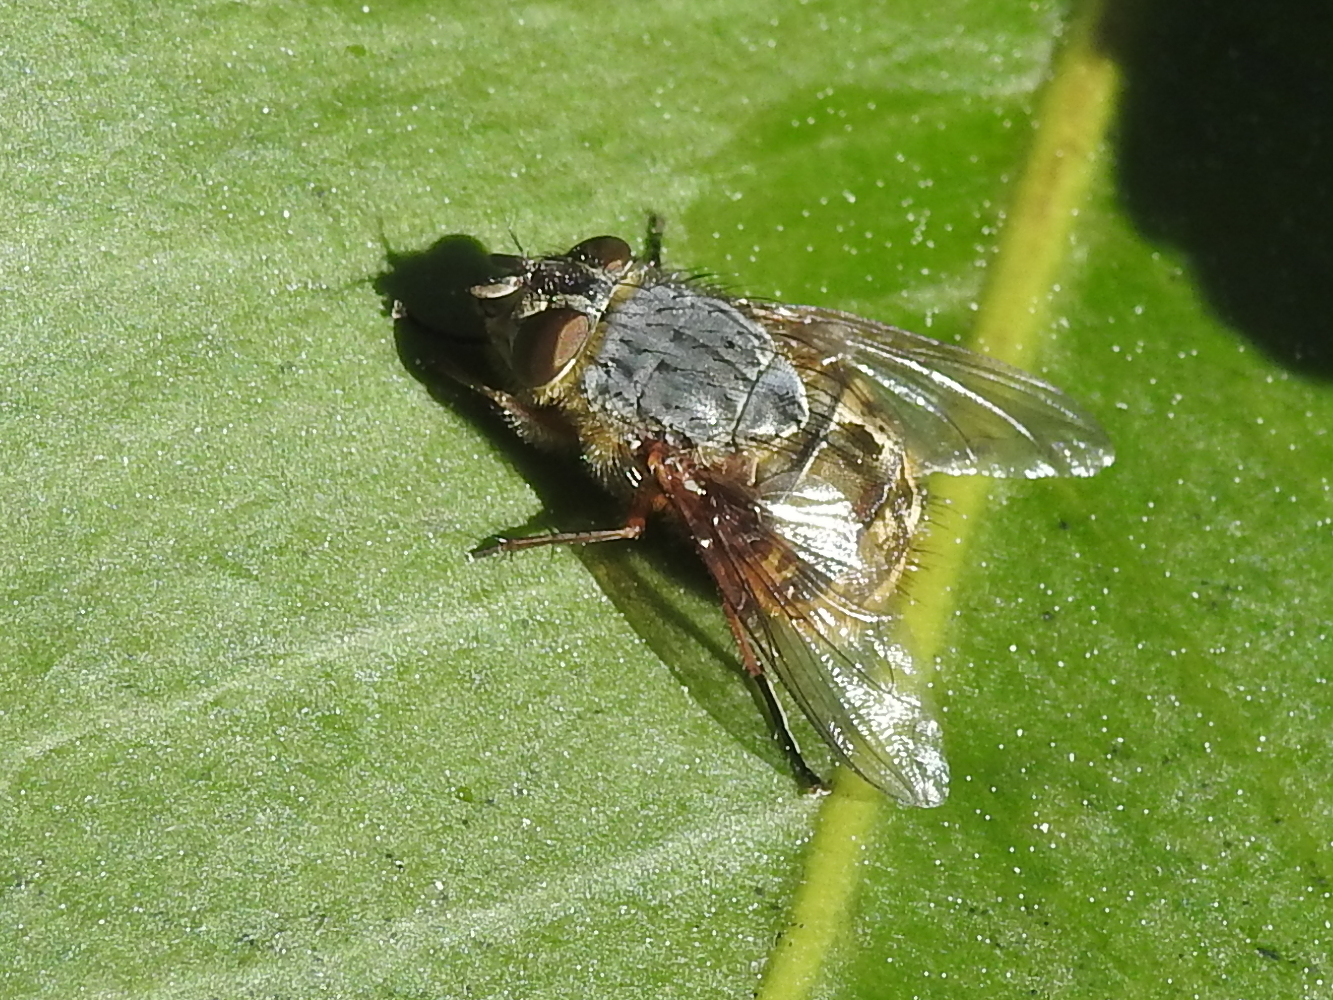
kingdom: Animalia
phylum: Arthropoda
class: Insecta
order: Diptera
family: Calliphoridae
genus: Calliphora
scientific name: Calliphora hilli
